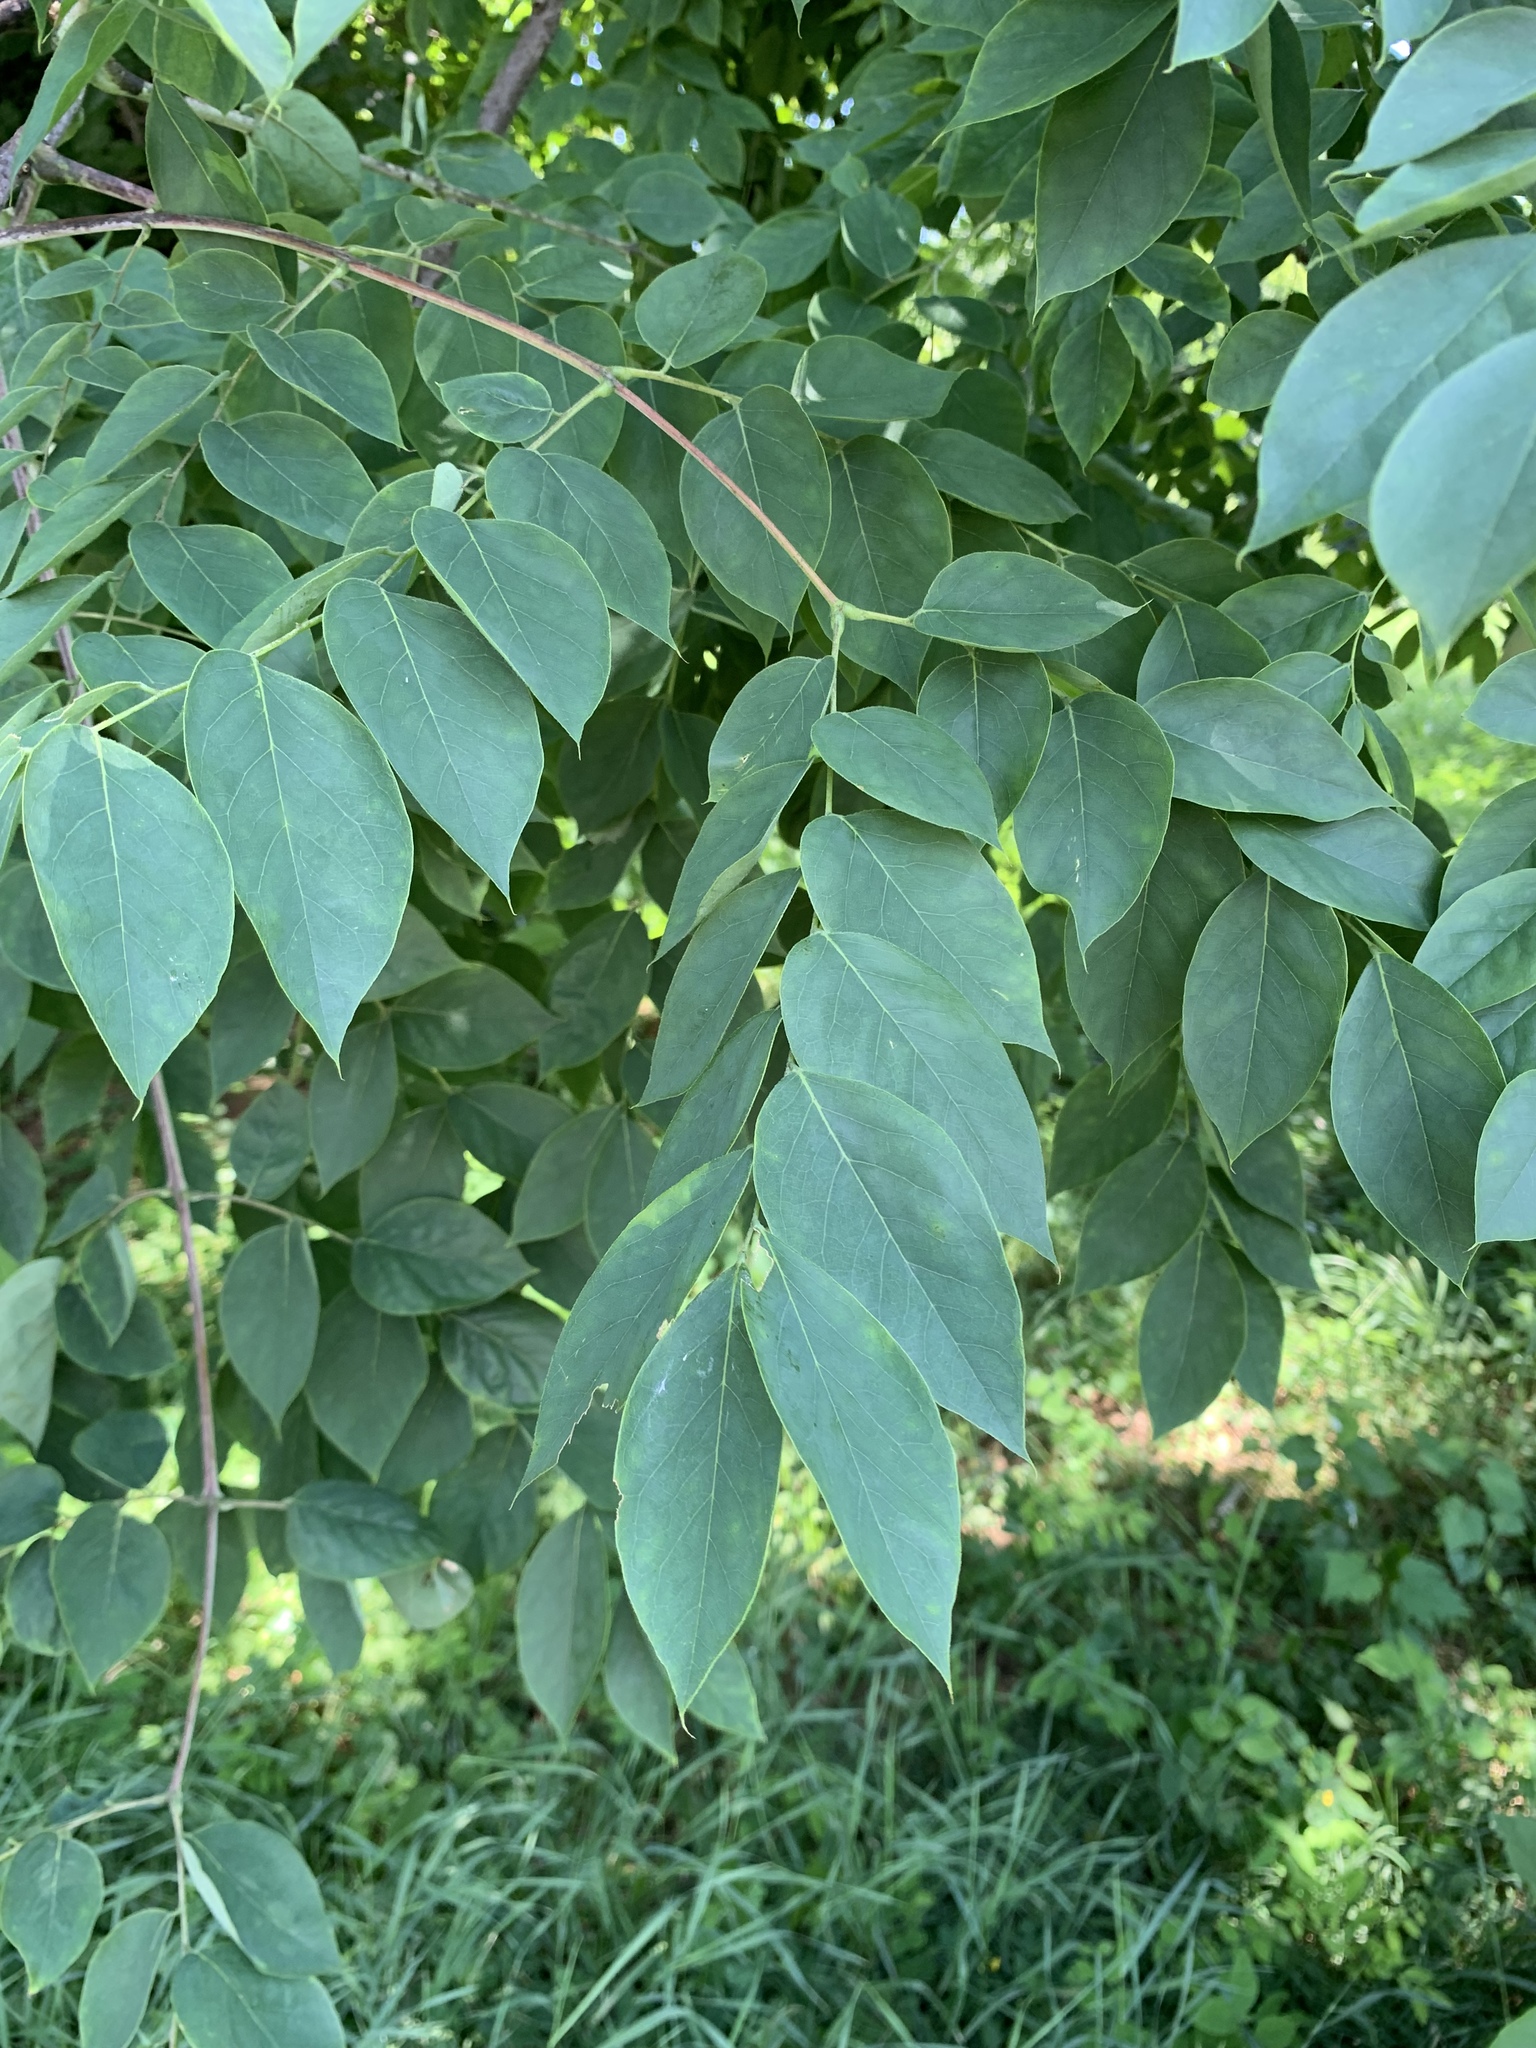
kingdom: Plantae
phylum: Tracheophyta
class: Magnoliopsida
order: Fabales
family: Fabaceae
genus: Gymnocladus
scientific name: Gymnocladus dioicus
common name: Kentucky coffee-tree
